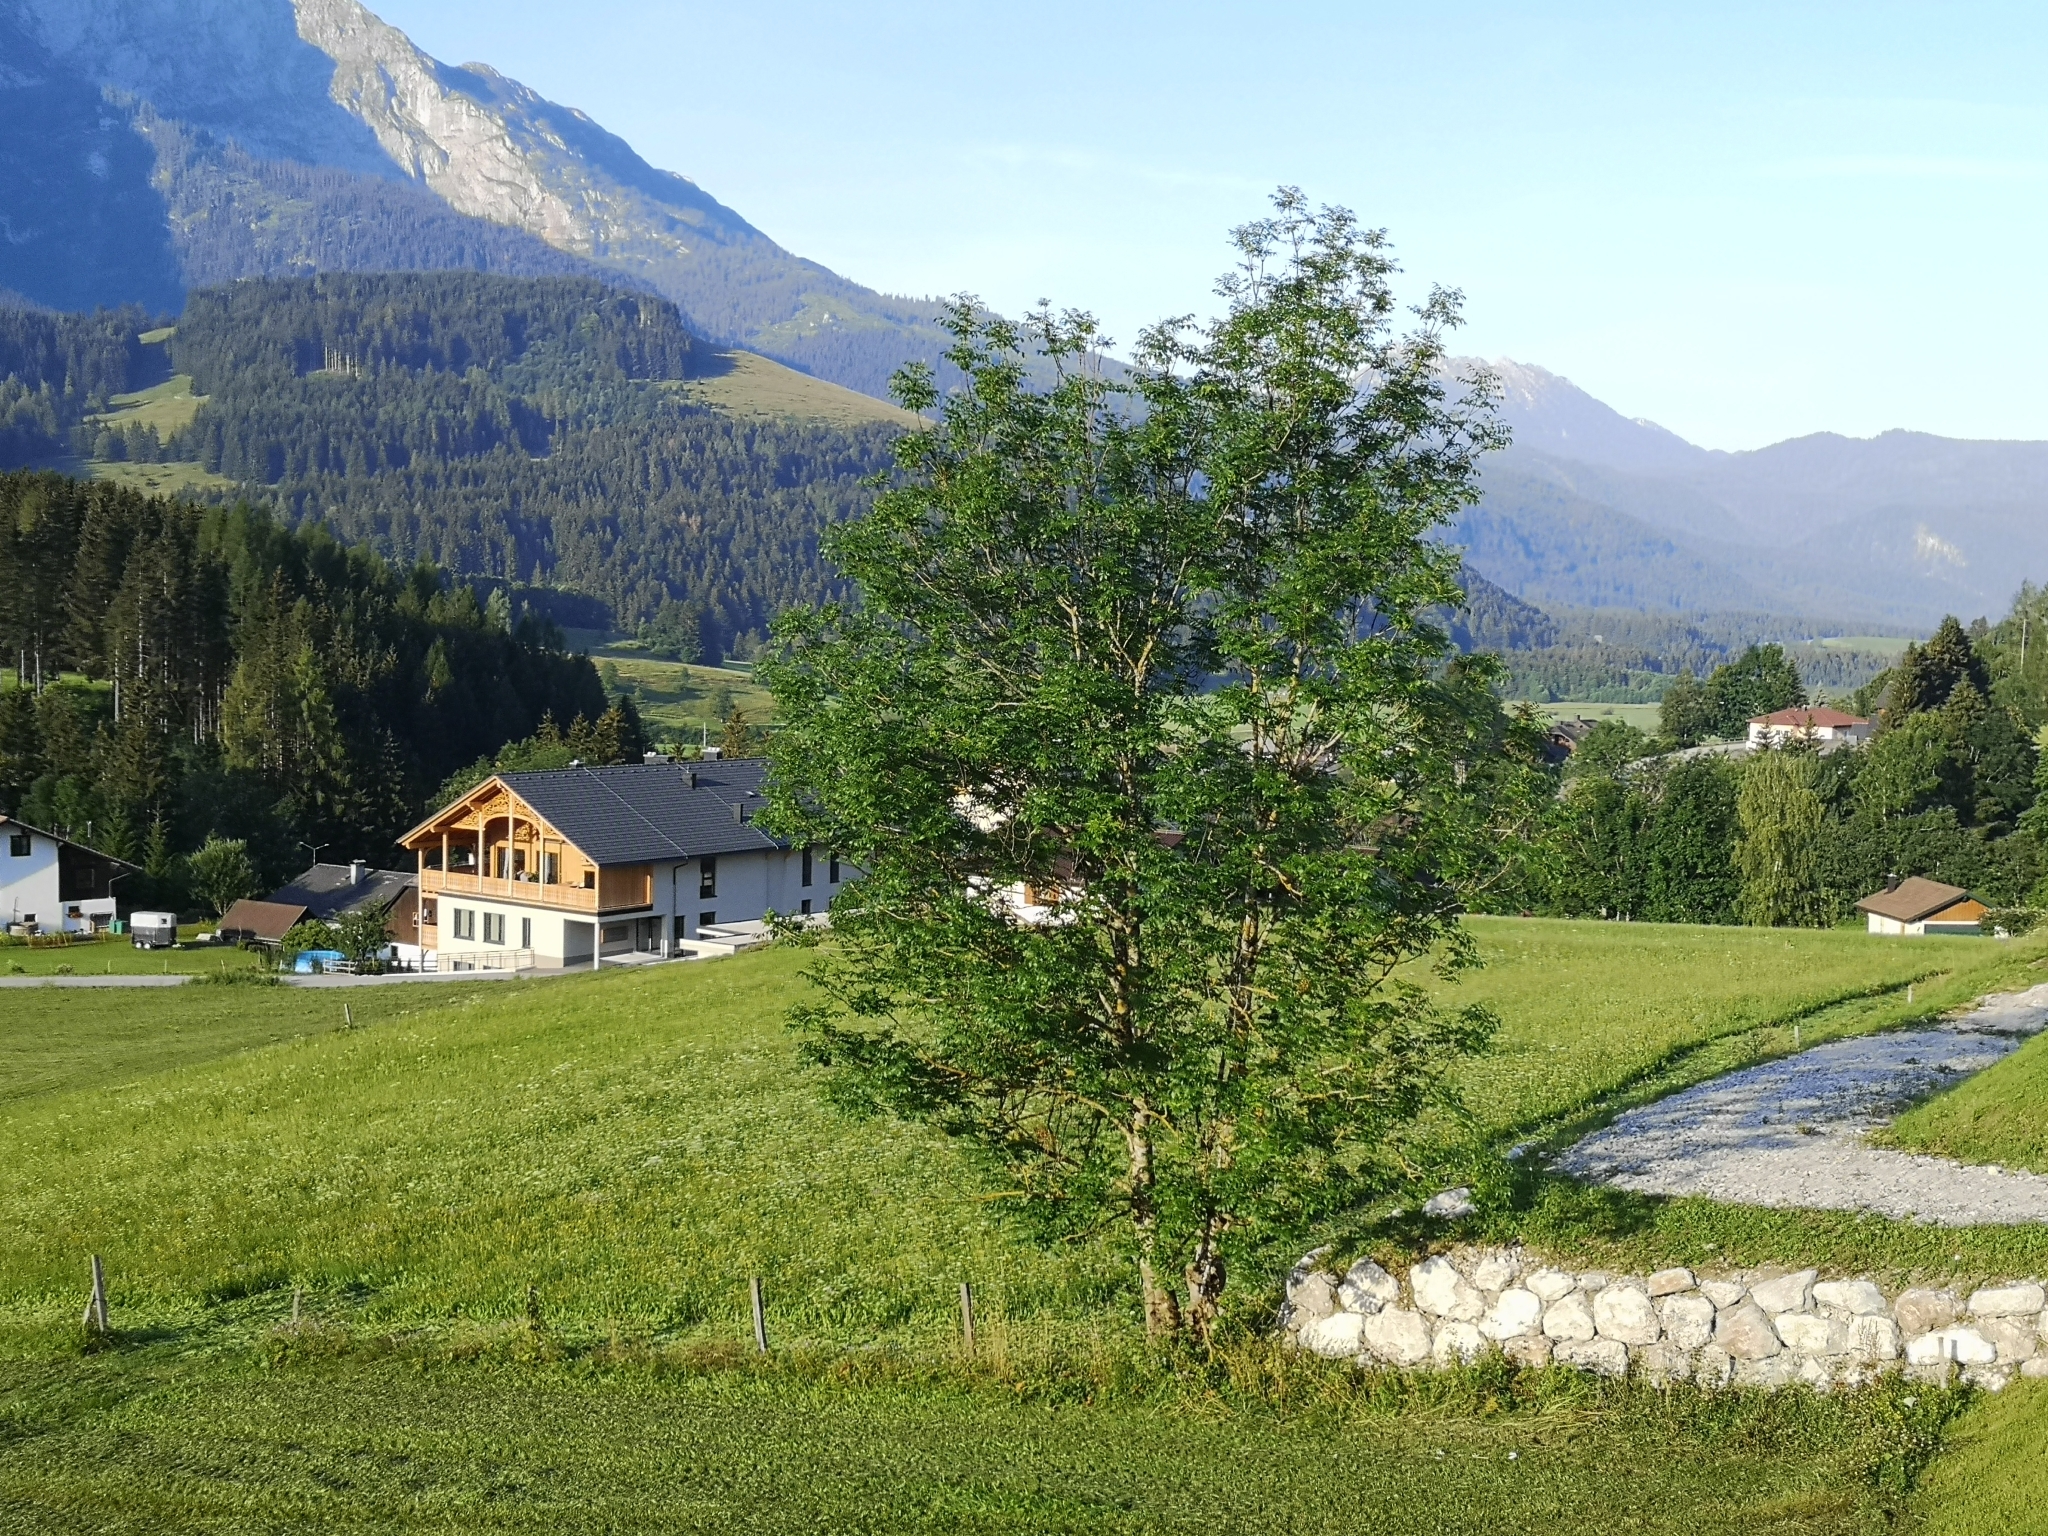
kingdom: Plantae
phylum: Tracheophyta
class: Magnoliopsida
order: Lamiales
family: Oleaceae
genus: Fraxinus
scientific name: Fraxinus excelsior
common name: European ash
